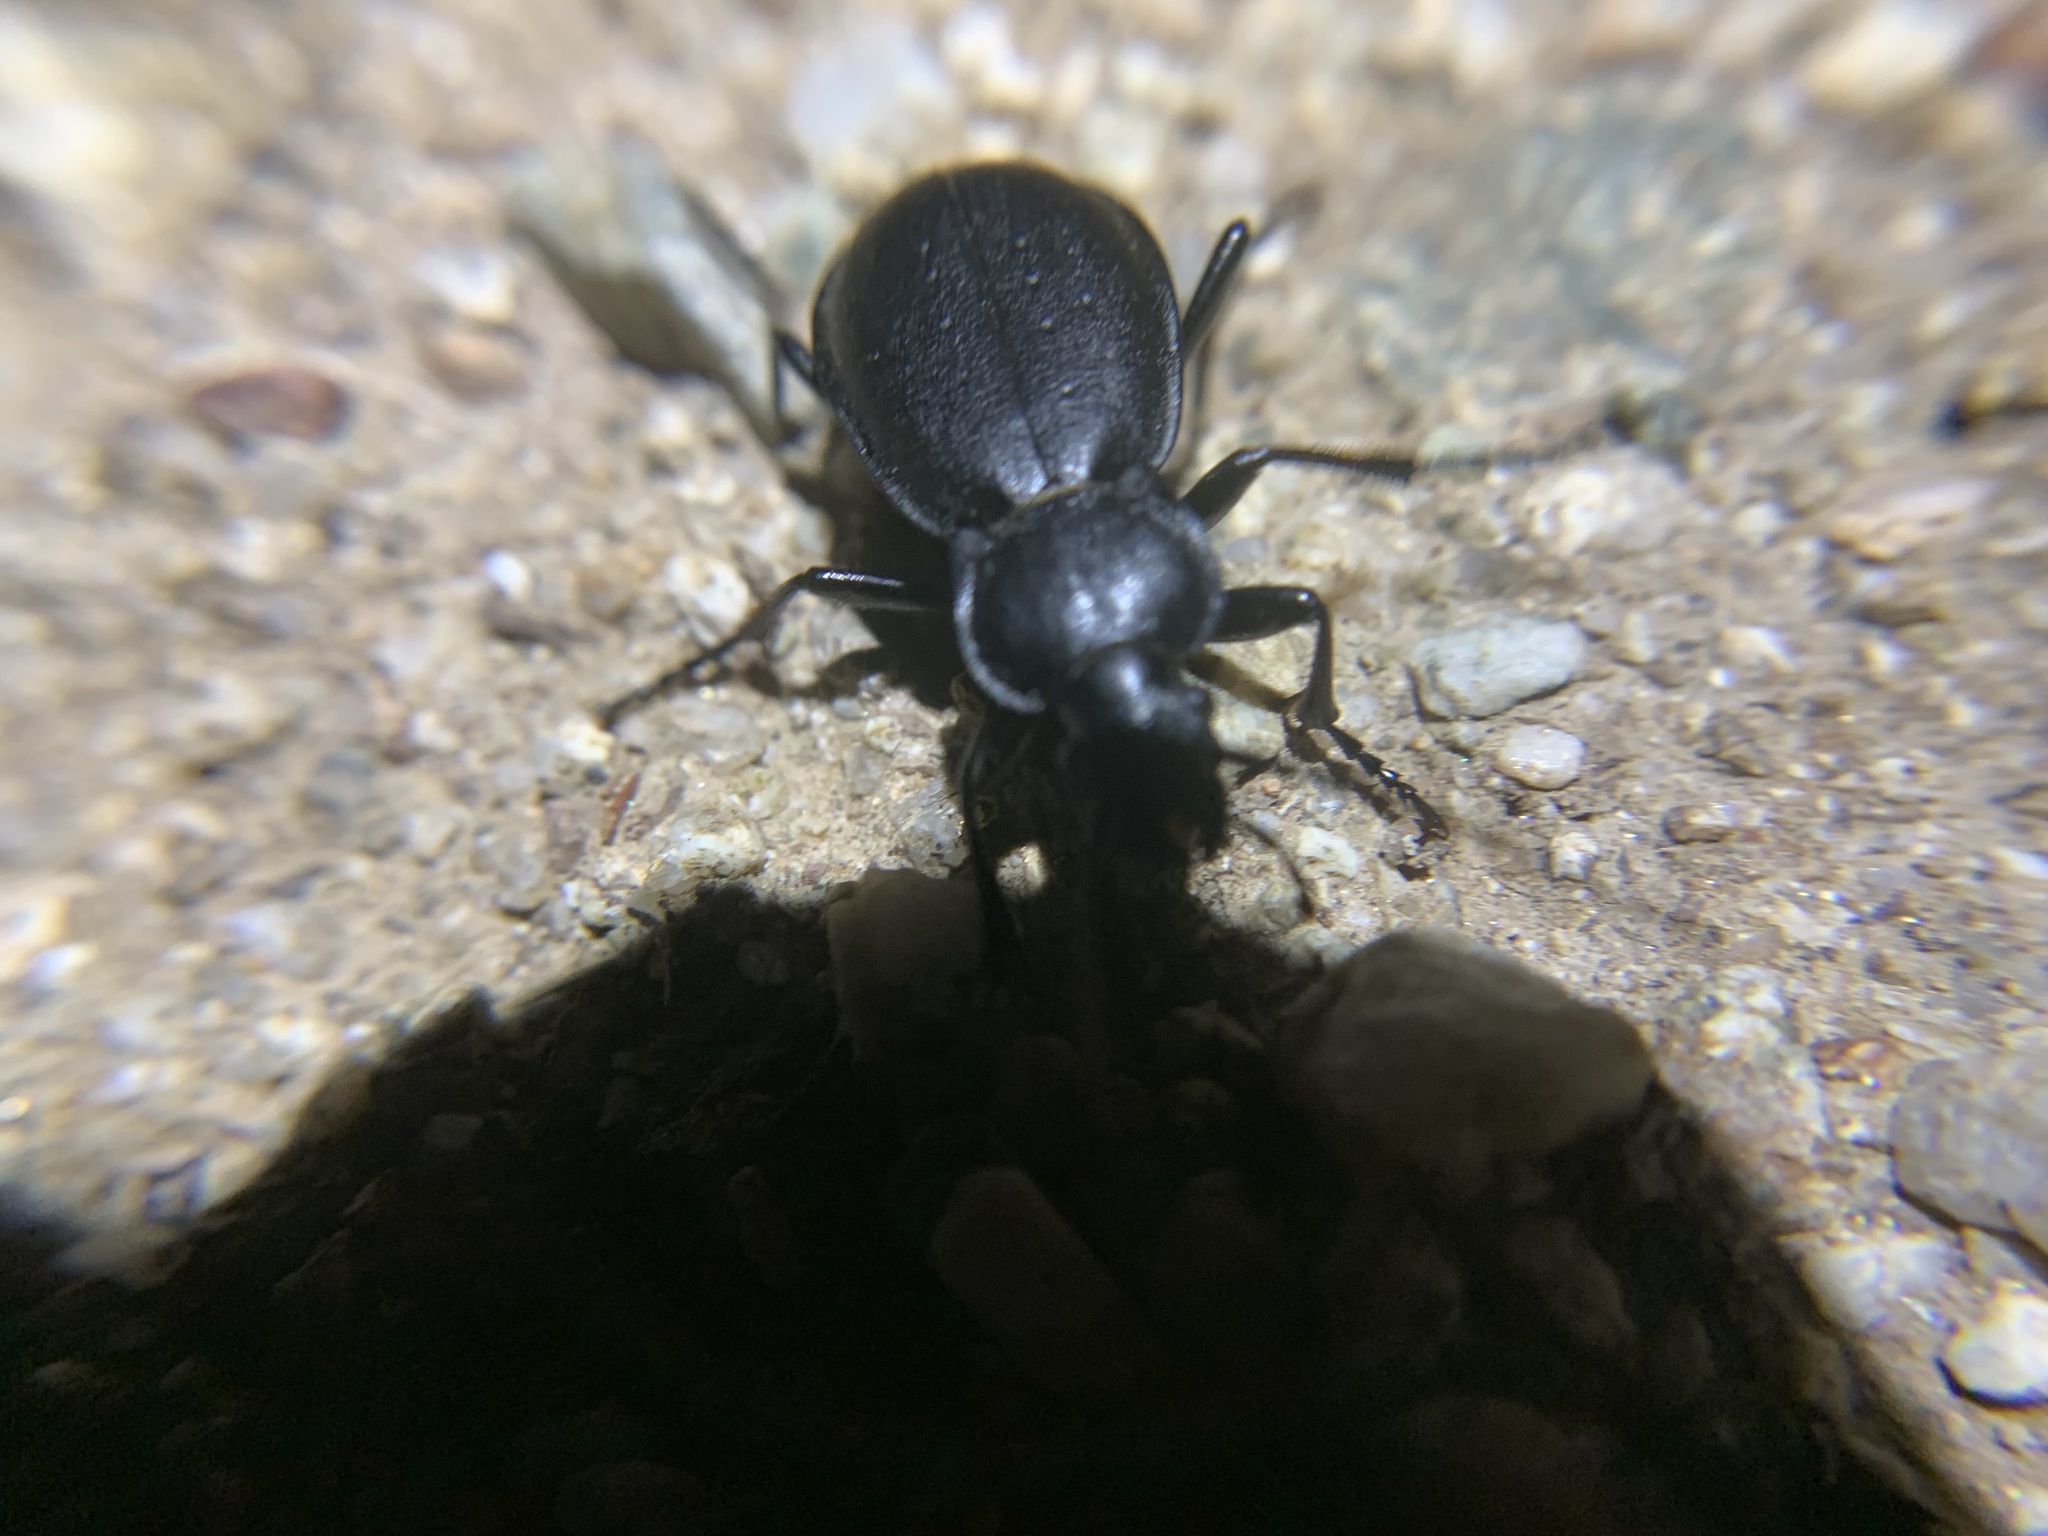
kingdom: Animalia
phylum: Arthropoda
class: Insecta
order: Coleoptera
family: Carabidae
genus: Carabus
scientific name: Carabus taedatus
